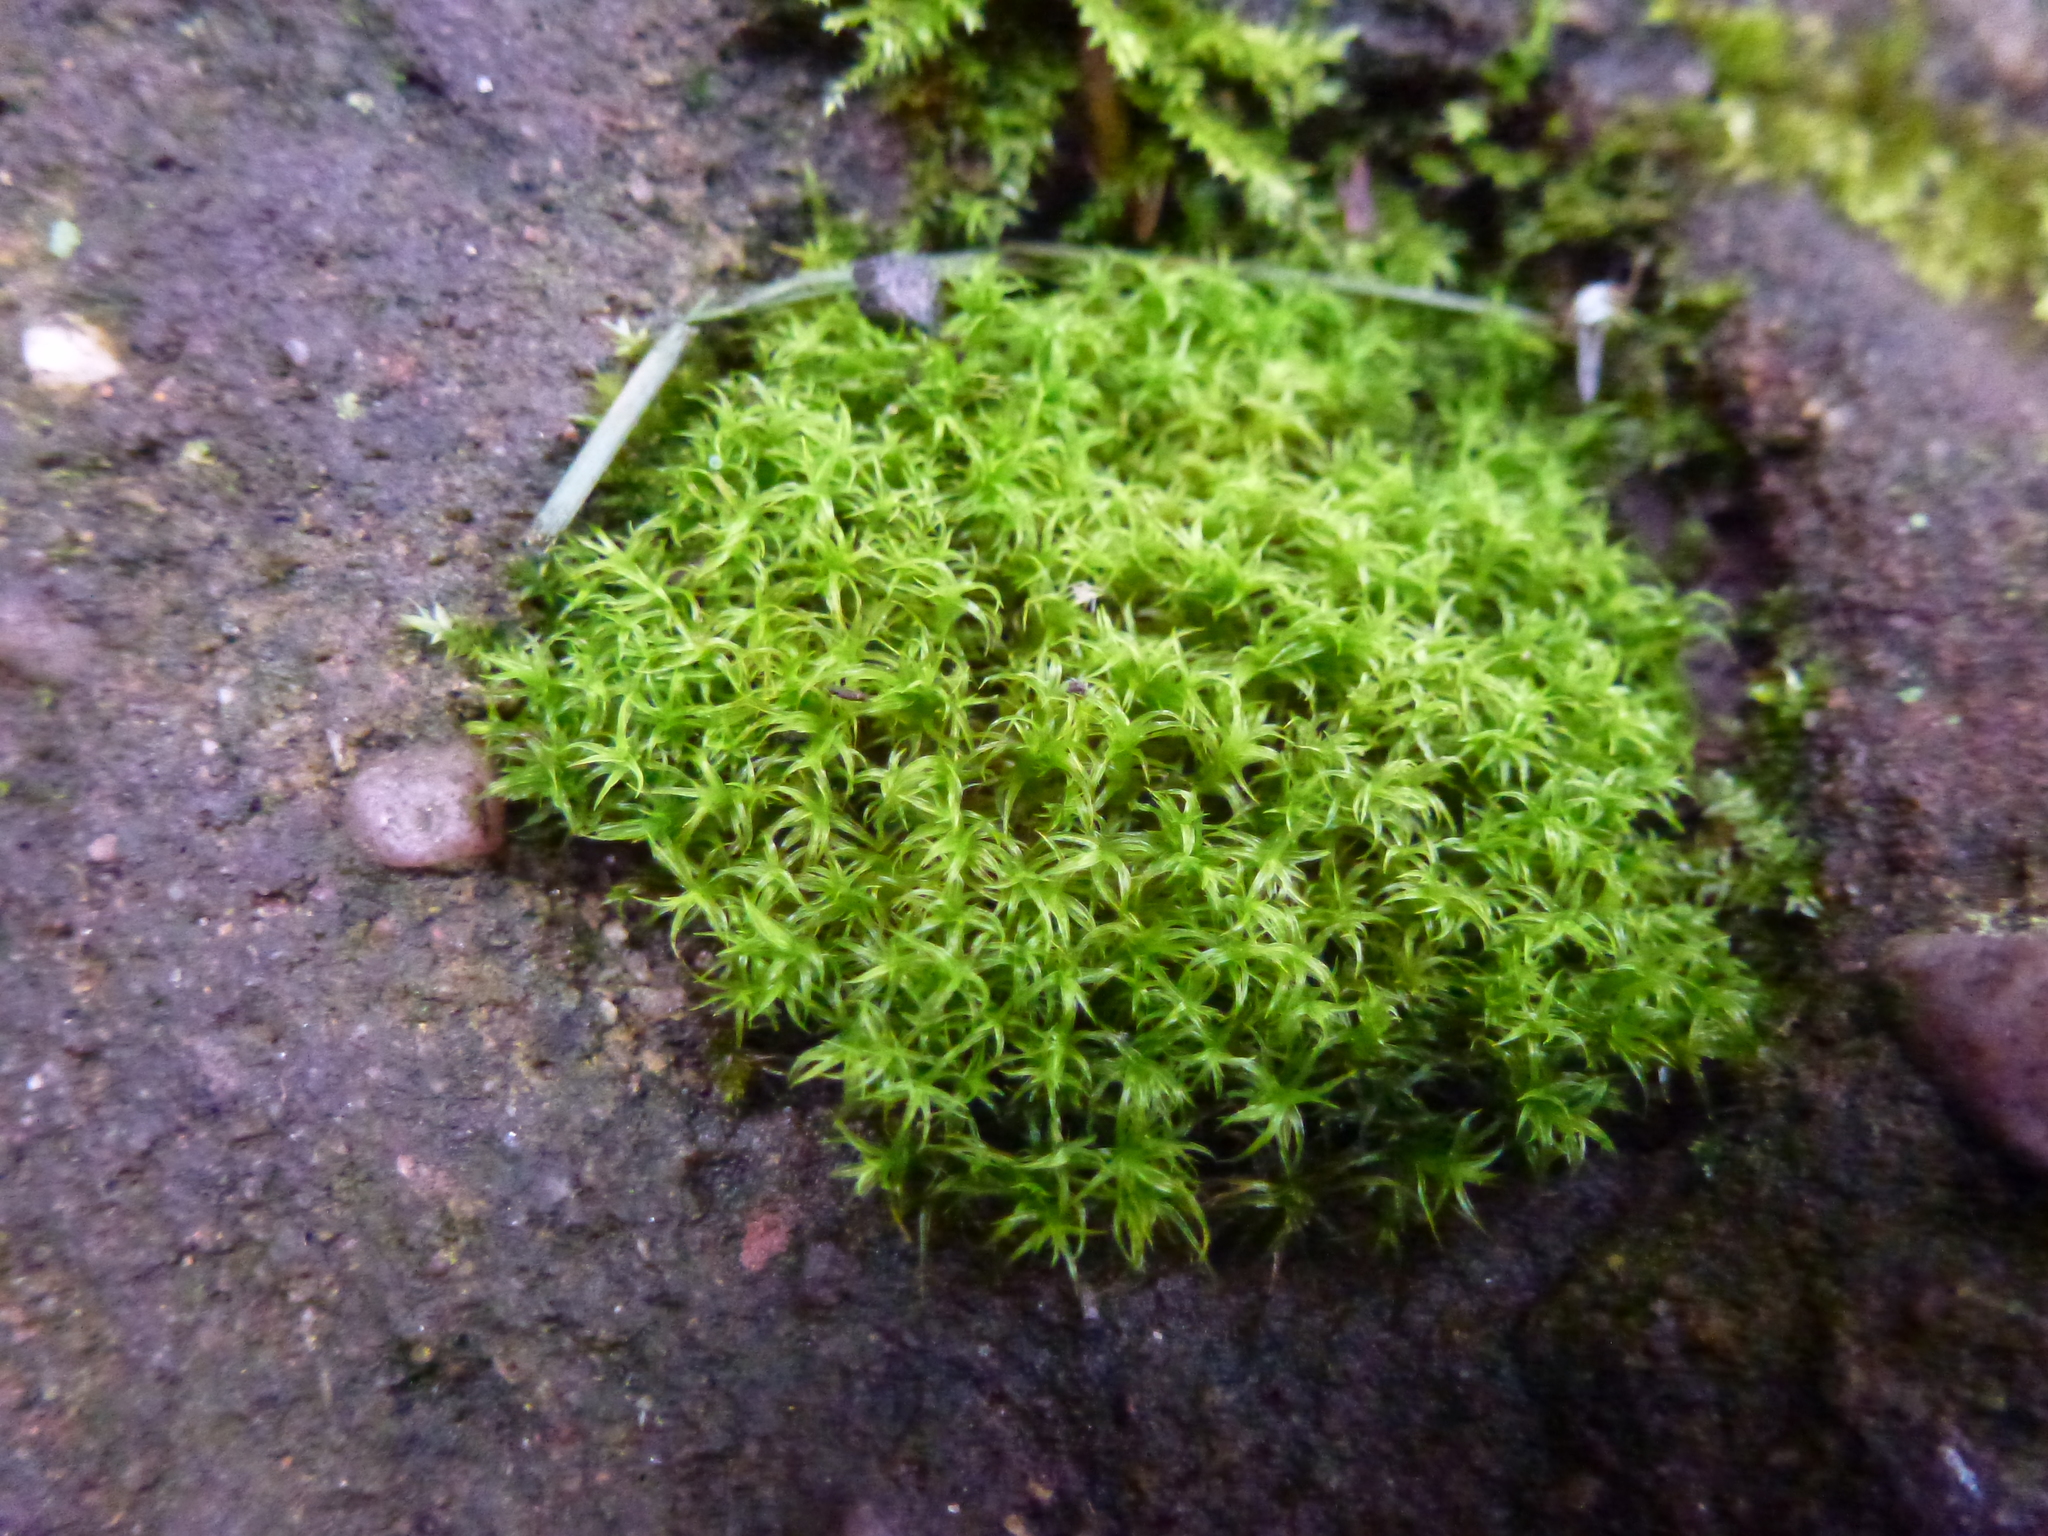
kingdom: Plantae
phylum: Bryophyta
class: Bryopsida
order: Pottiales
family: Pottiaceae
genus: Vinealobryum
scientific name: Vinealobryum vineale
